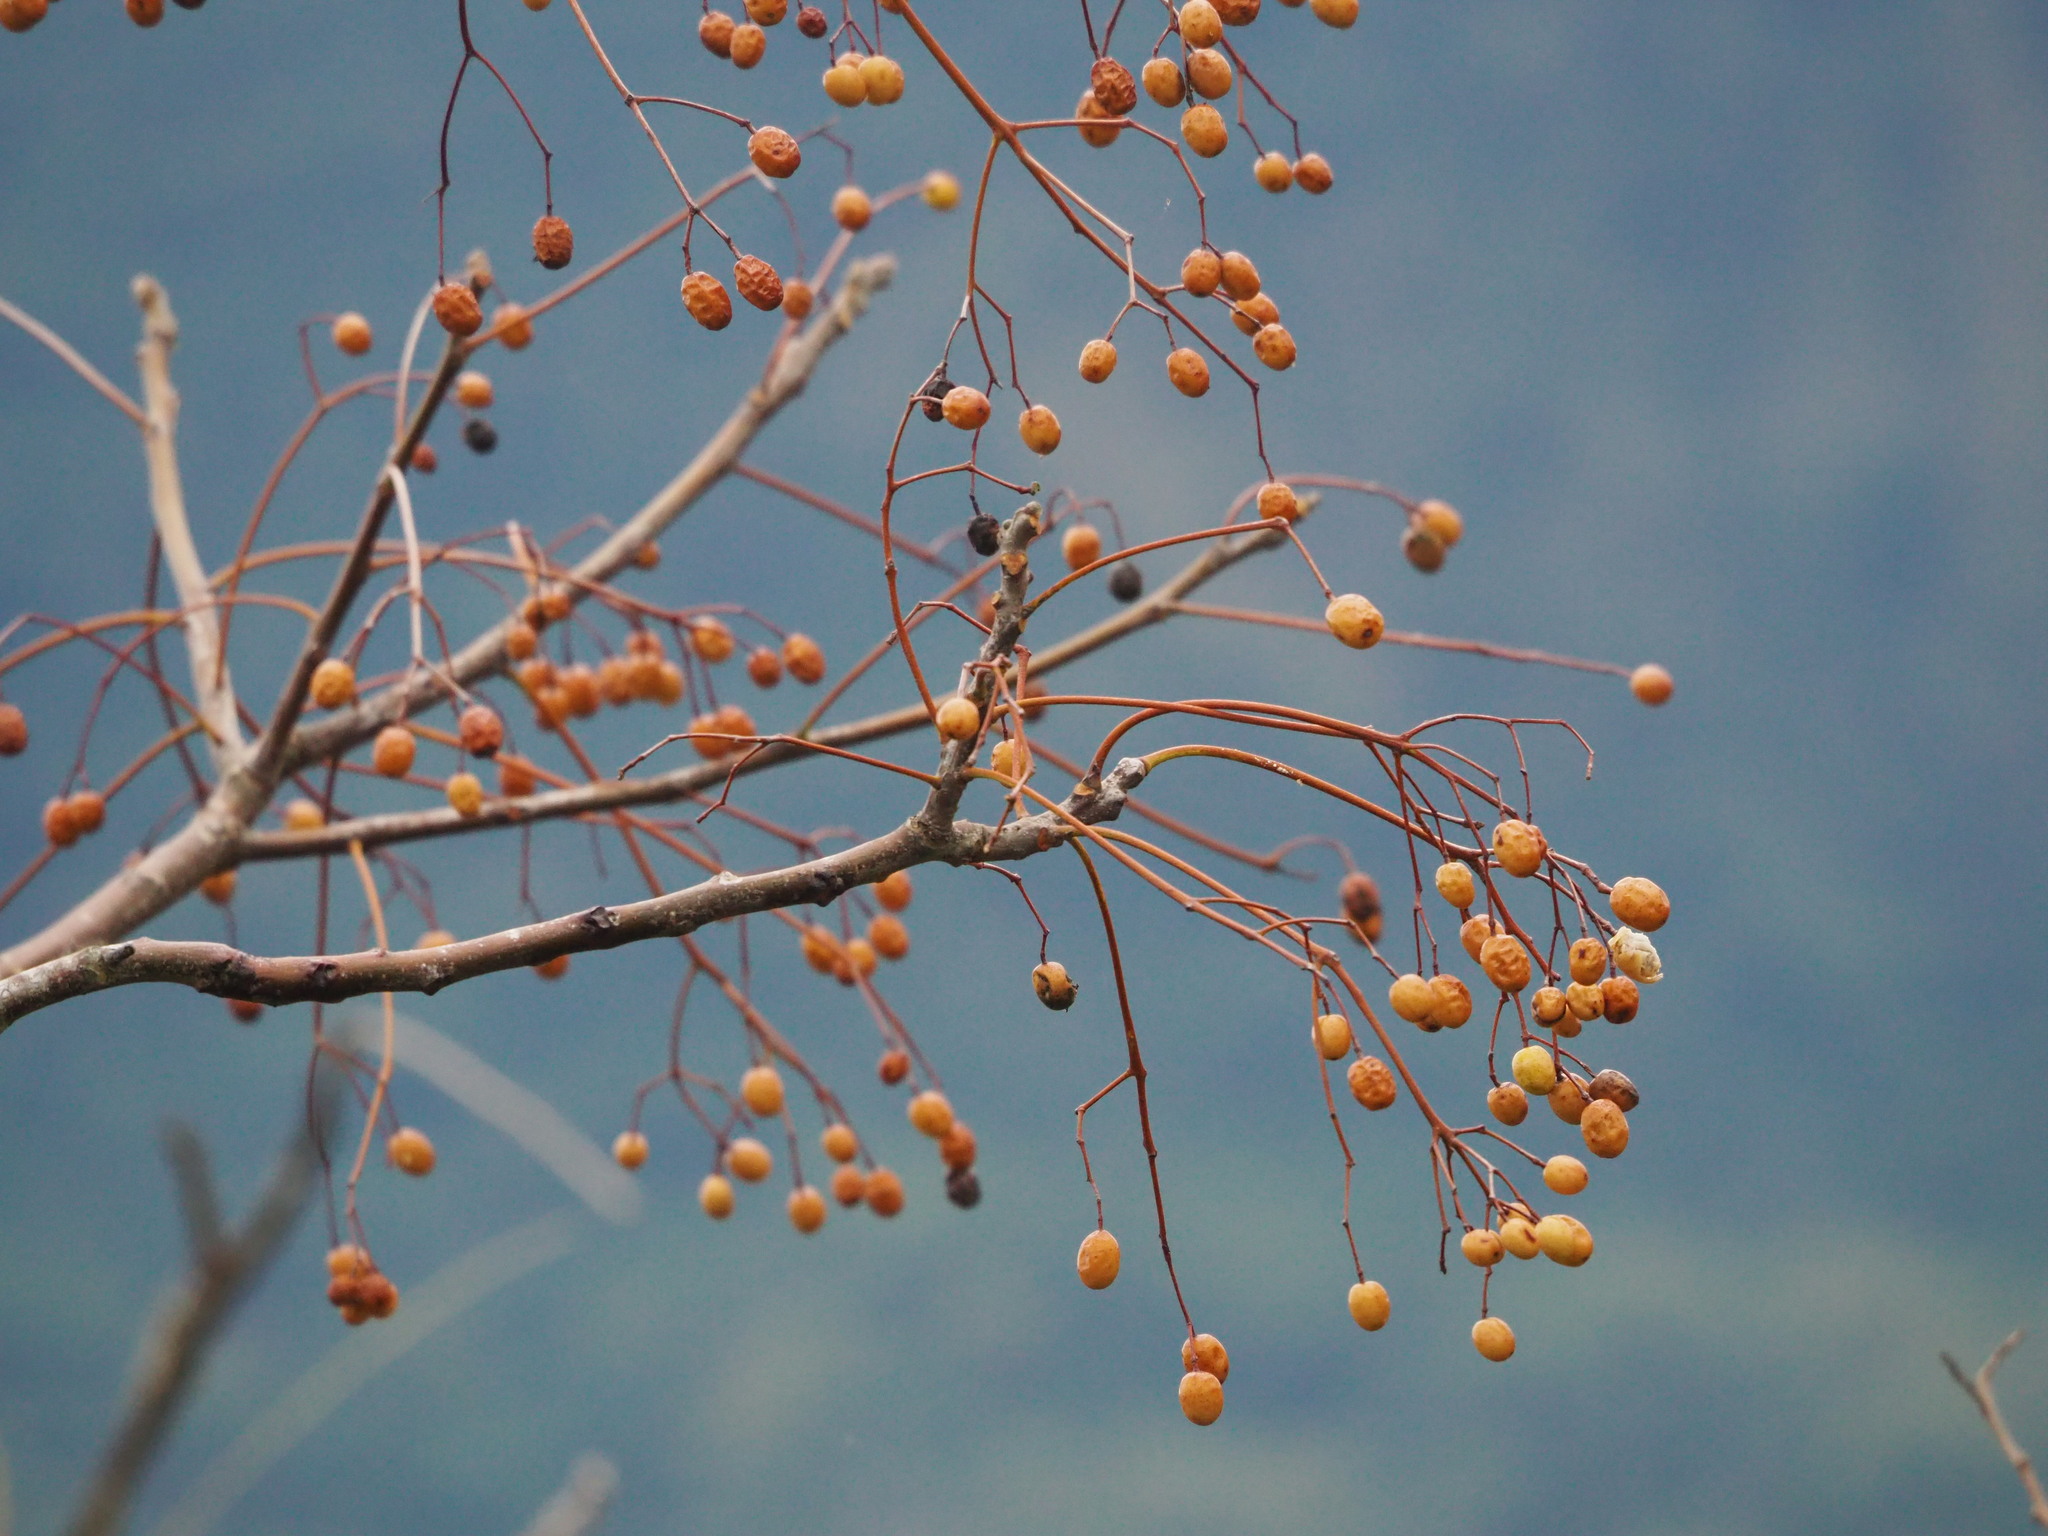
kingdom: Plantae
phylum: Tracheophyta
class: Magnoliopsida
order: Sapindales
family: Meliaceae
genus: Melia
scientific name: Melia azedarach
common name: Chinaberrytree
